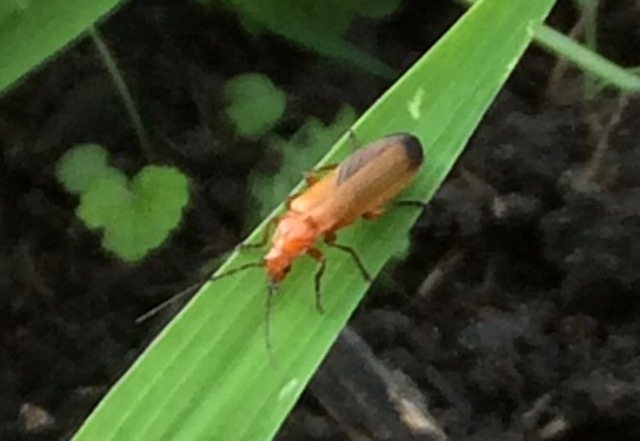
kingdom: Animalia
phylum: Arthropoda
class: Insecta
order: Coleoptera
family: Cantharidae
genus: Rhagonycha
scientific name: Rhagonycha fulva
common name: Common red soldier beetle
